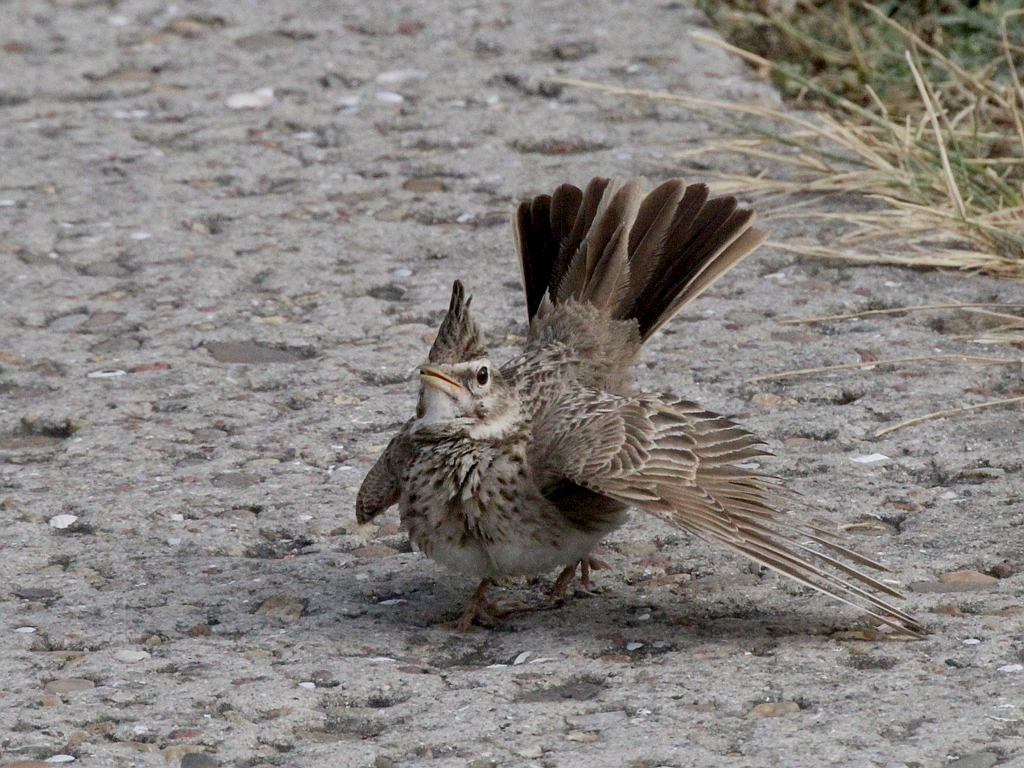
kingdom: Animalia
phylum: Chordata
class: Aves
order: Passeriformes
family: Alaudidae
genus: Galerida
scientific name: Galerida cristata
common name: Crested lark
